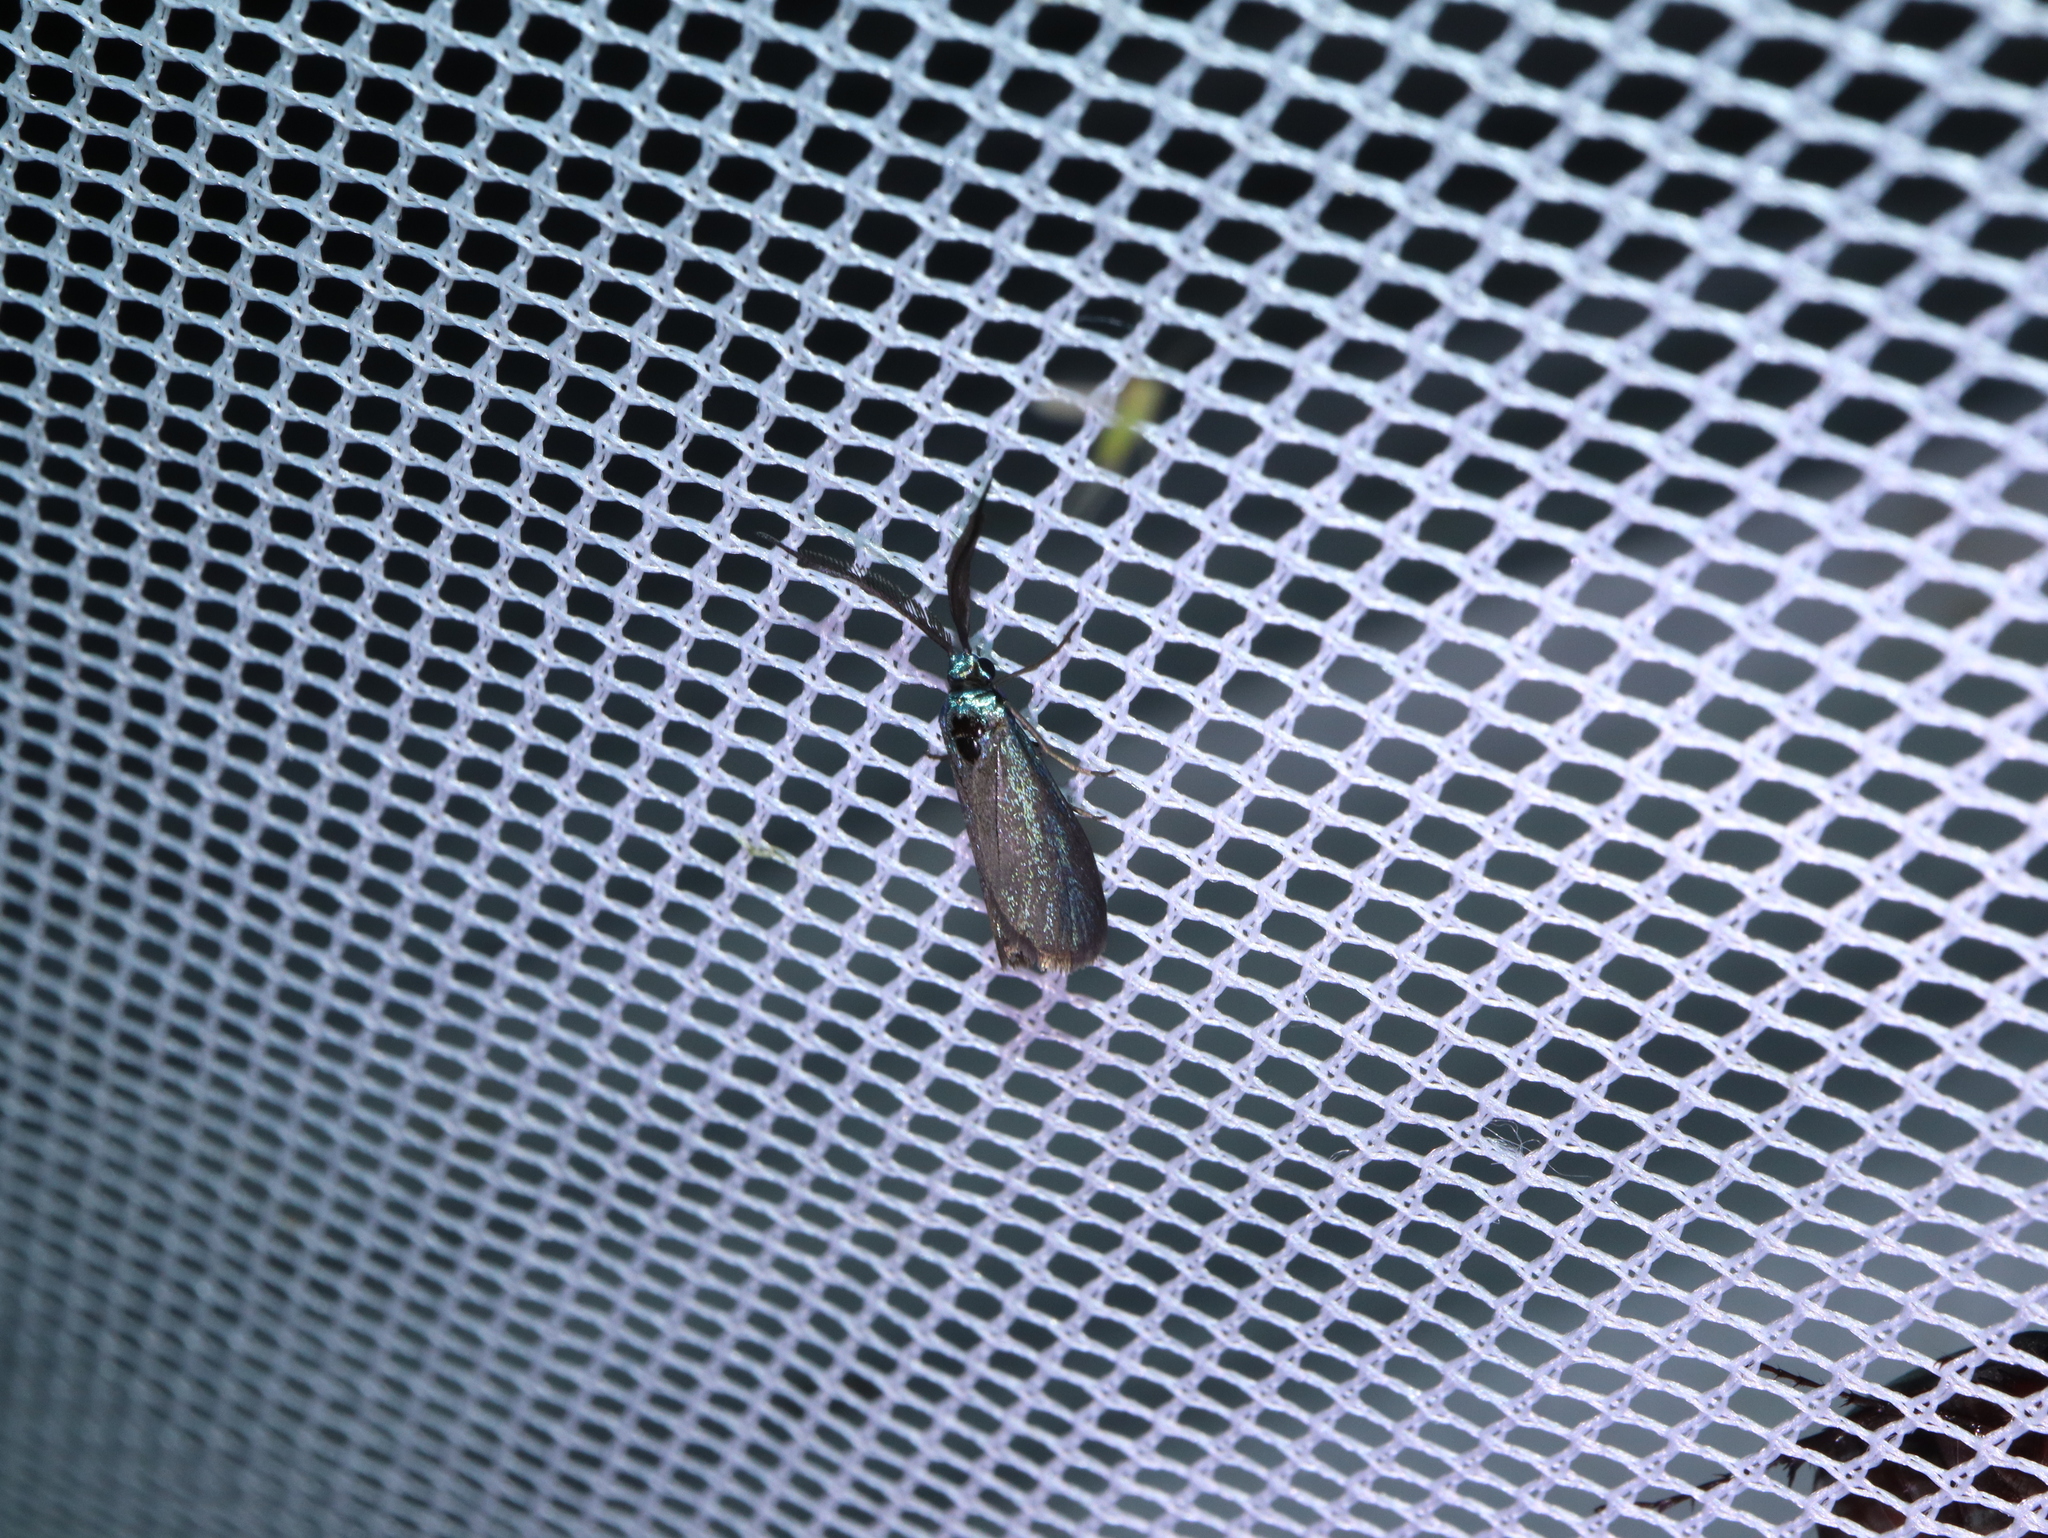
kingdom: Animalia
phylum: Arthropoda
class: Insecta
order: Lepidoptera
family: Zygaenidae
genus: Pollanisus
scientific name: Pollanisus nocturna
